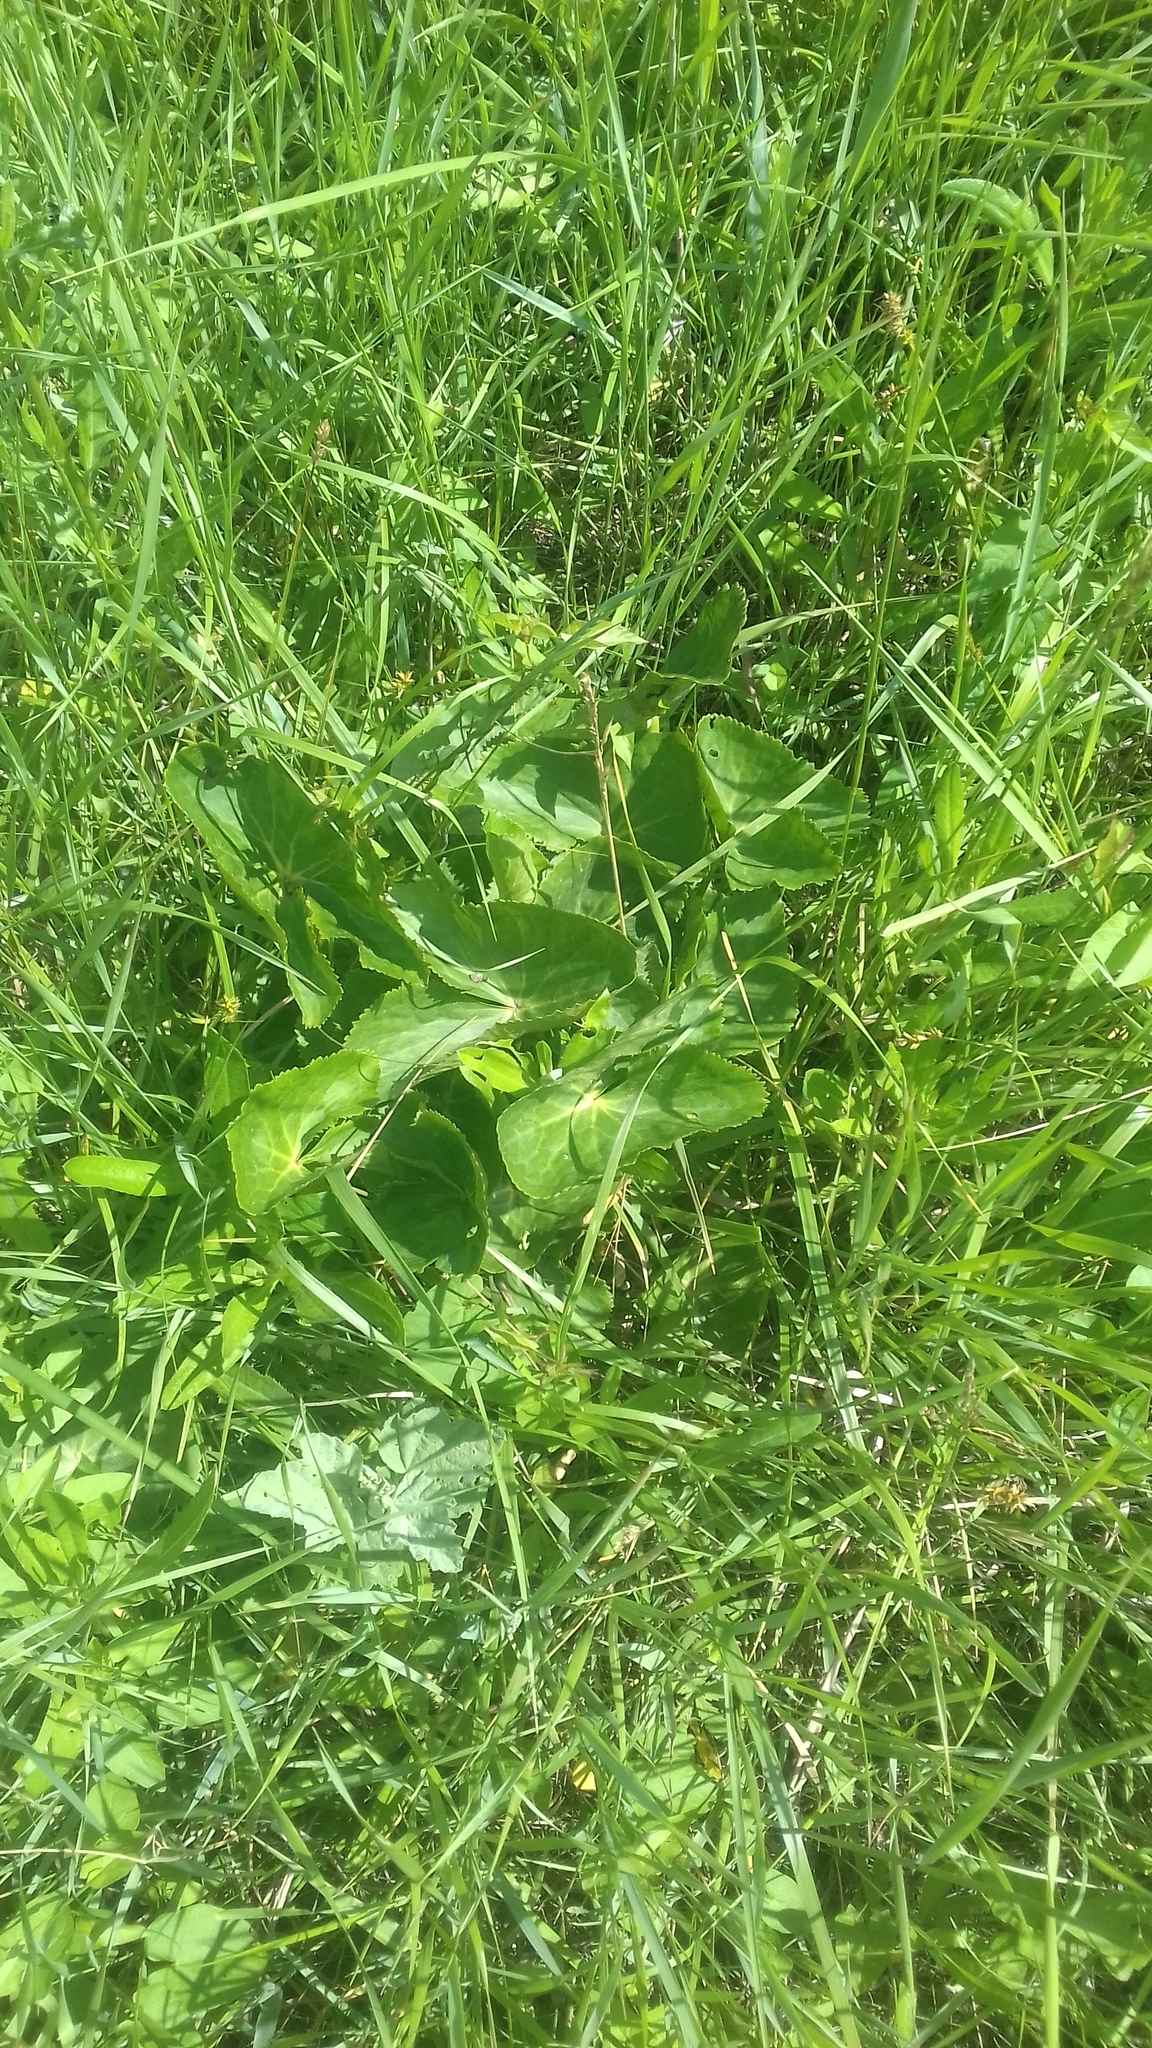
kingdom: Plantae
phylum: Tracheophyta
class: Magnoliopsida
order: Ranunculales
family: Ranunculaceae
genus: Caltha
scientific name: Caltha palustris
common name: Marsh marigold
